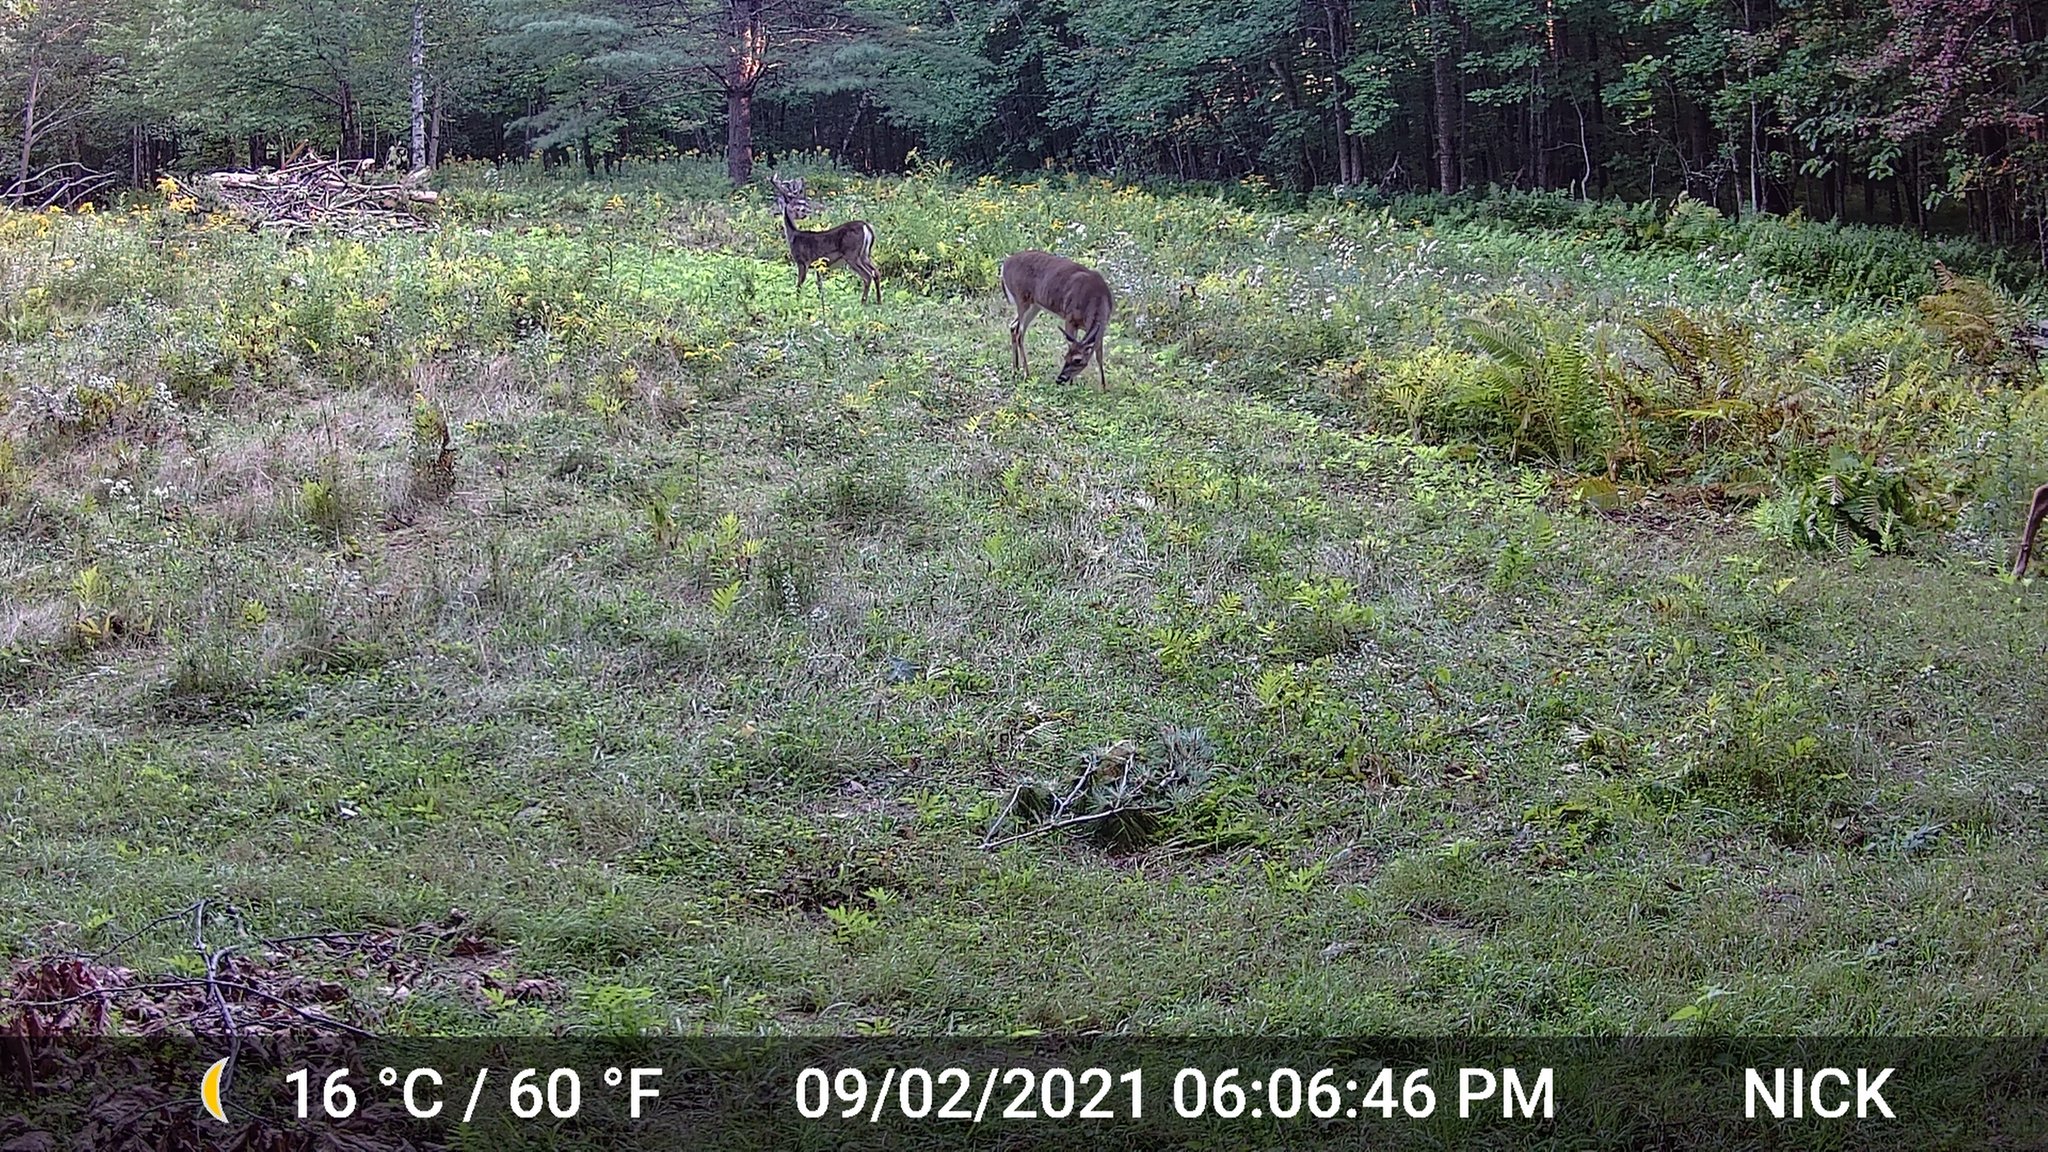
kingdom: Animalia
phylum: Chordata
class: Mammalia
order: Artiodactyla
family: Cervidae
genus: Odocoileus
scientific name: Odocoileus virginianus
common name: White-tailed deer
